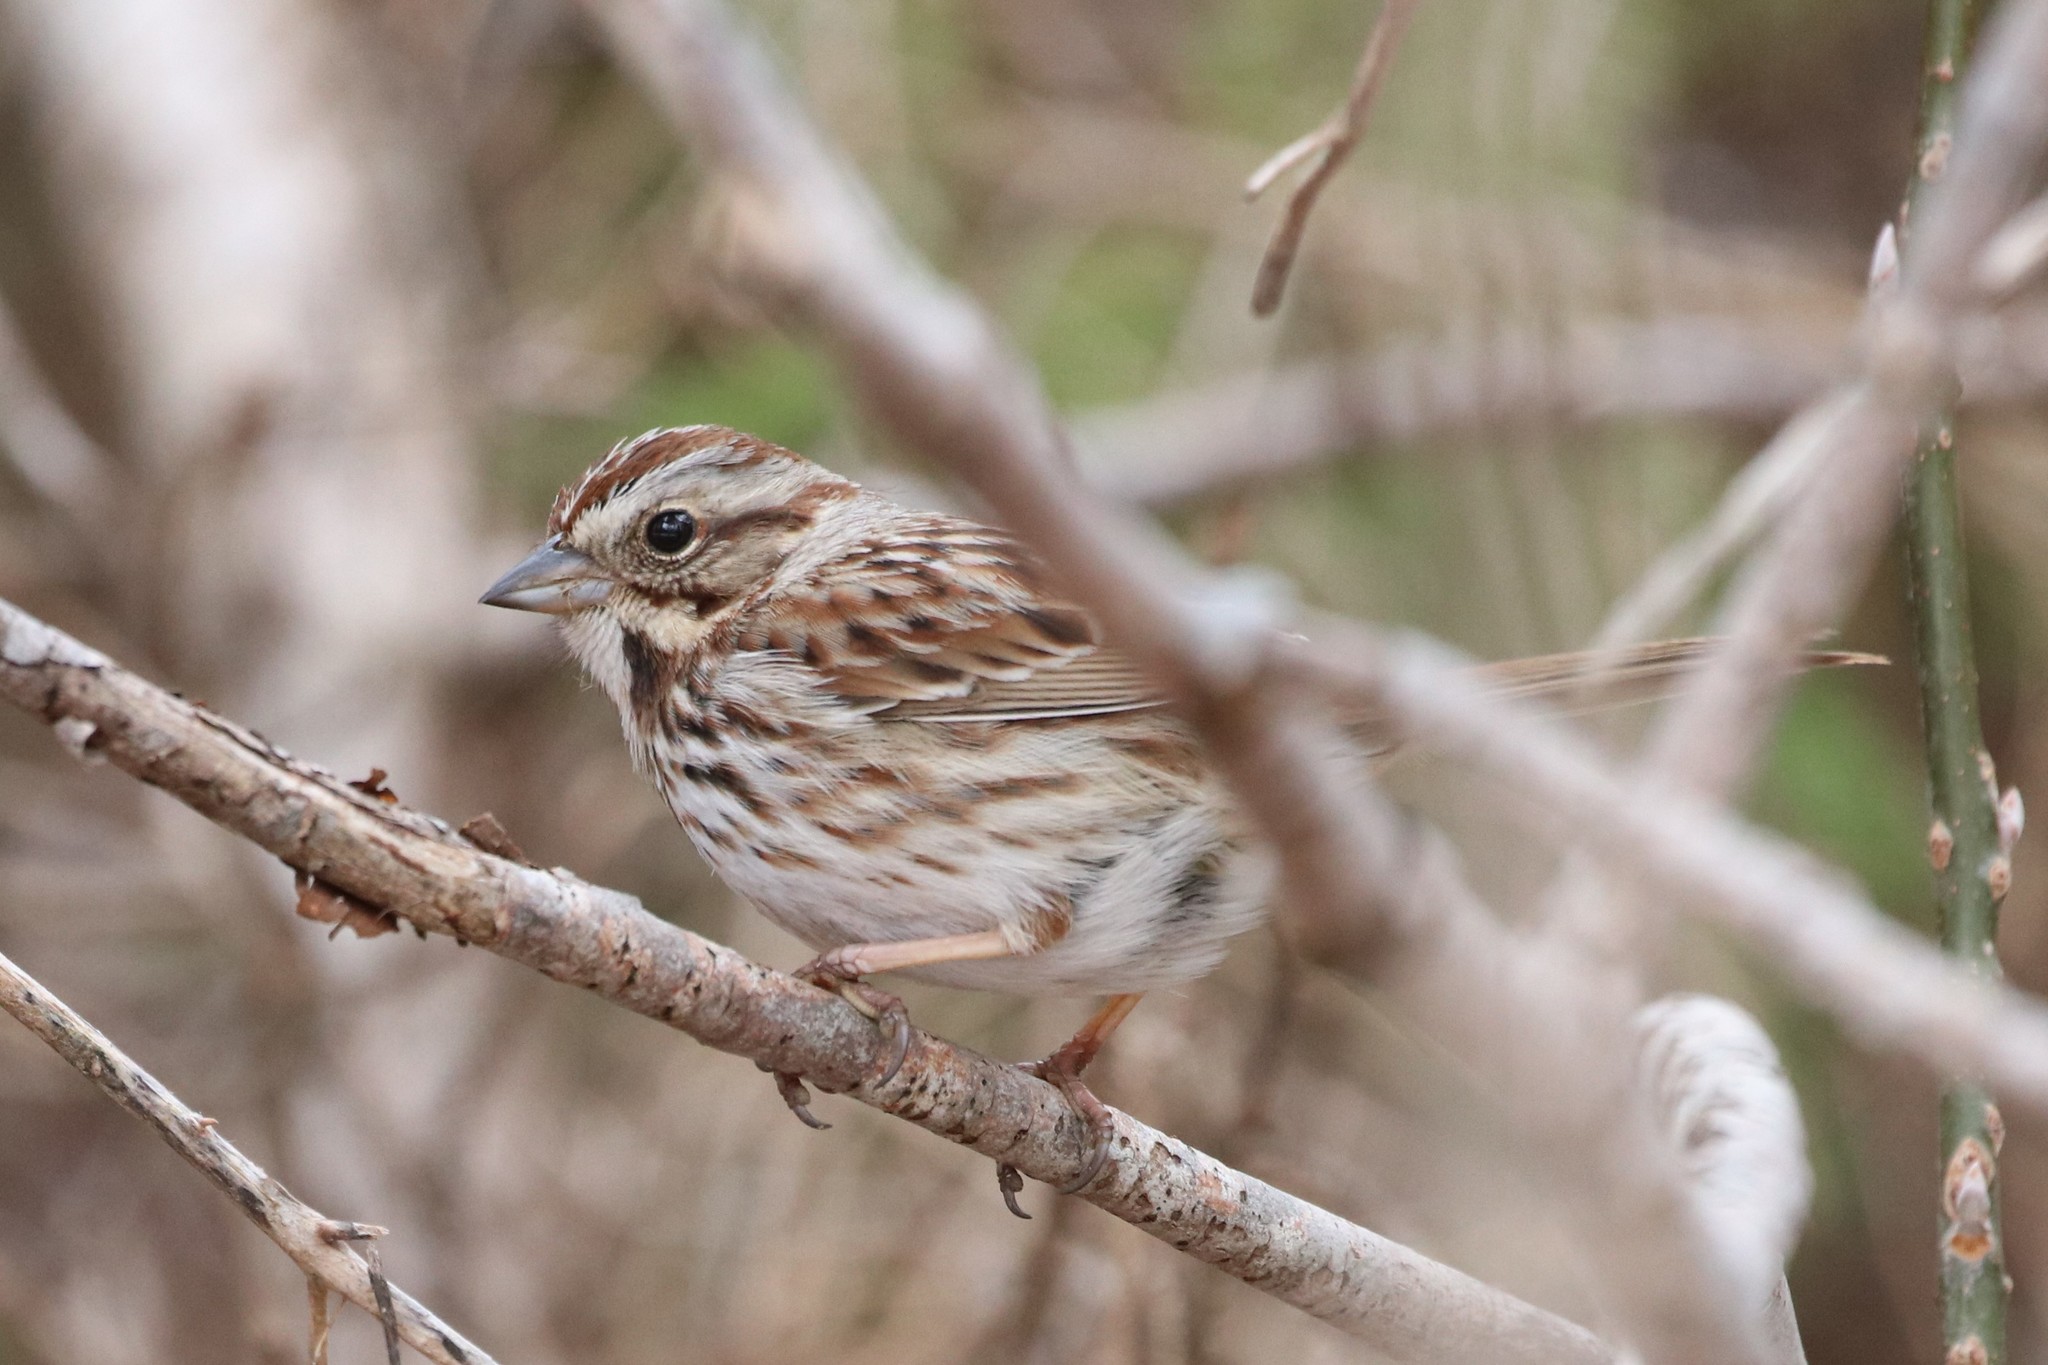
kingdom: Animalia
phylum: Chordata
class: Aves
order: Passeriformes
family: Passerellidae
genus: Melospiza
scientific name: Melospiza melodia
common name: Song sparrow
